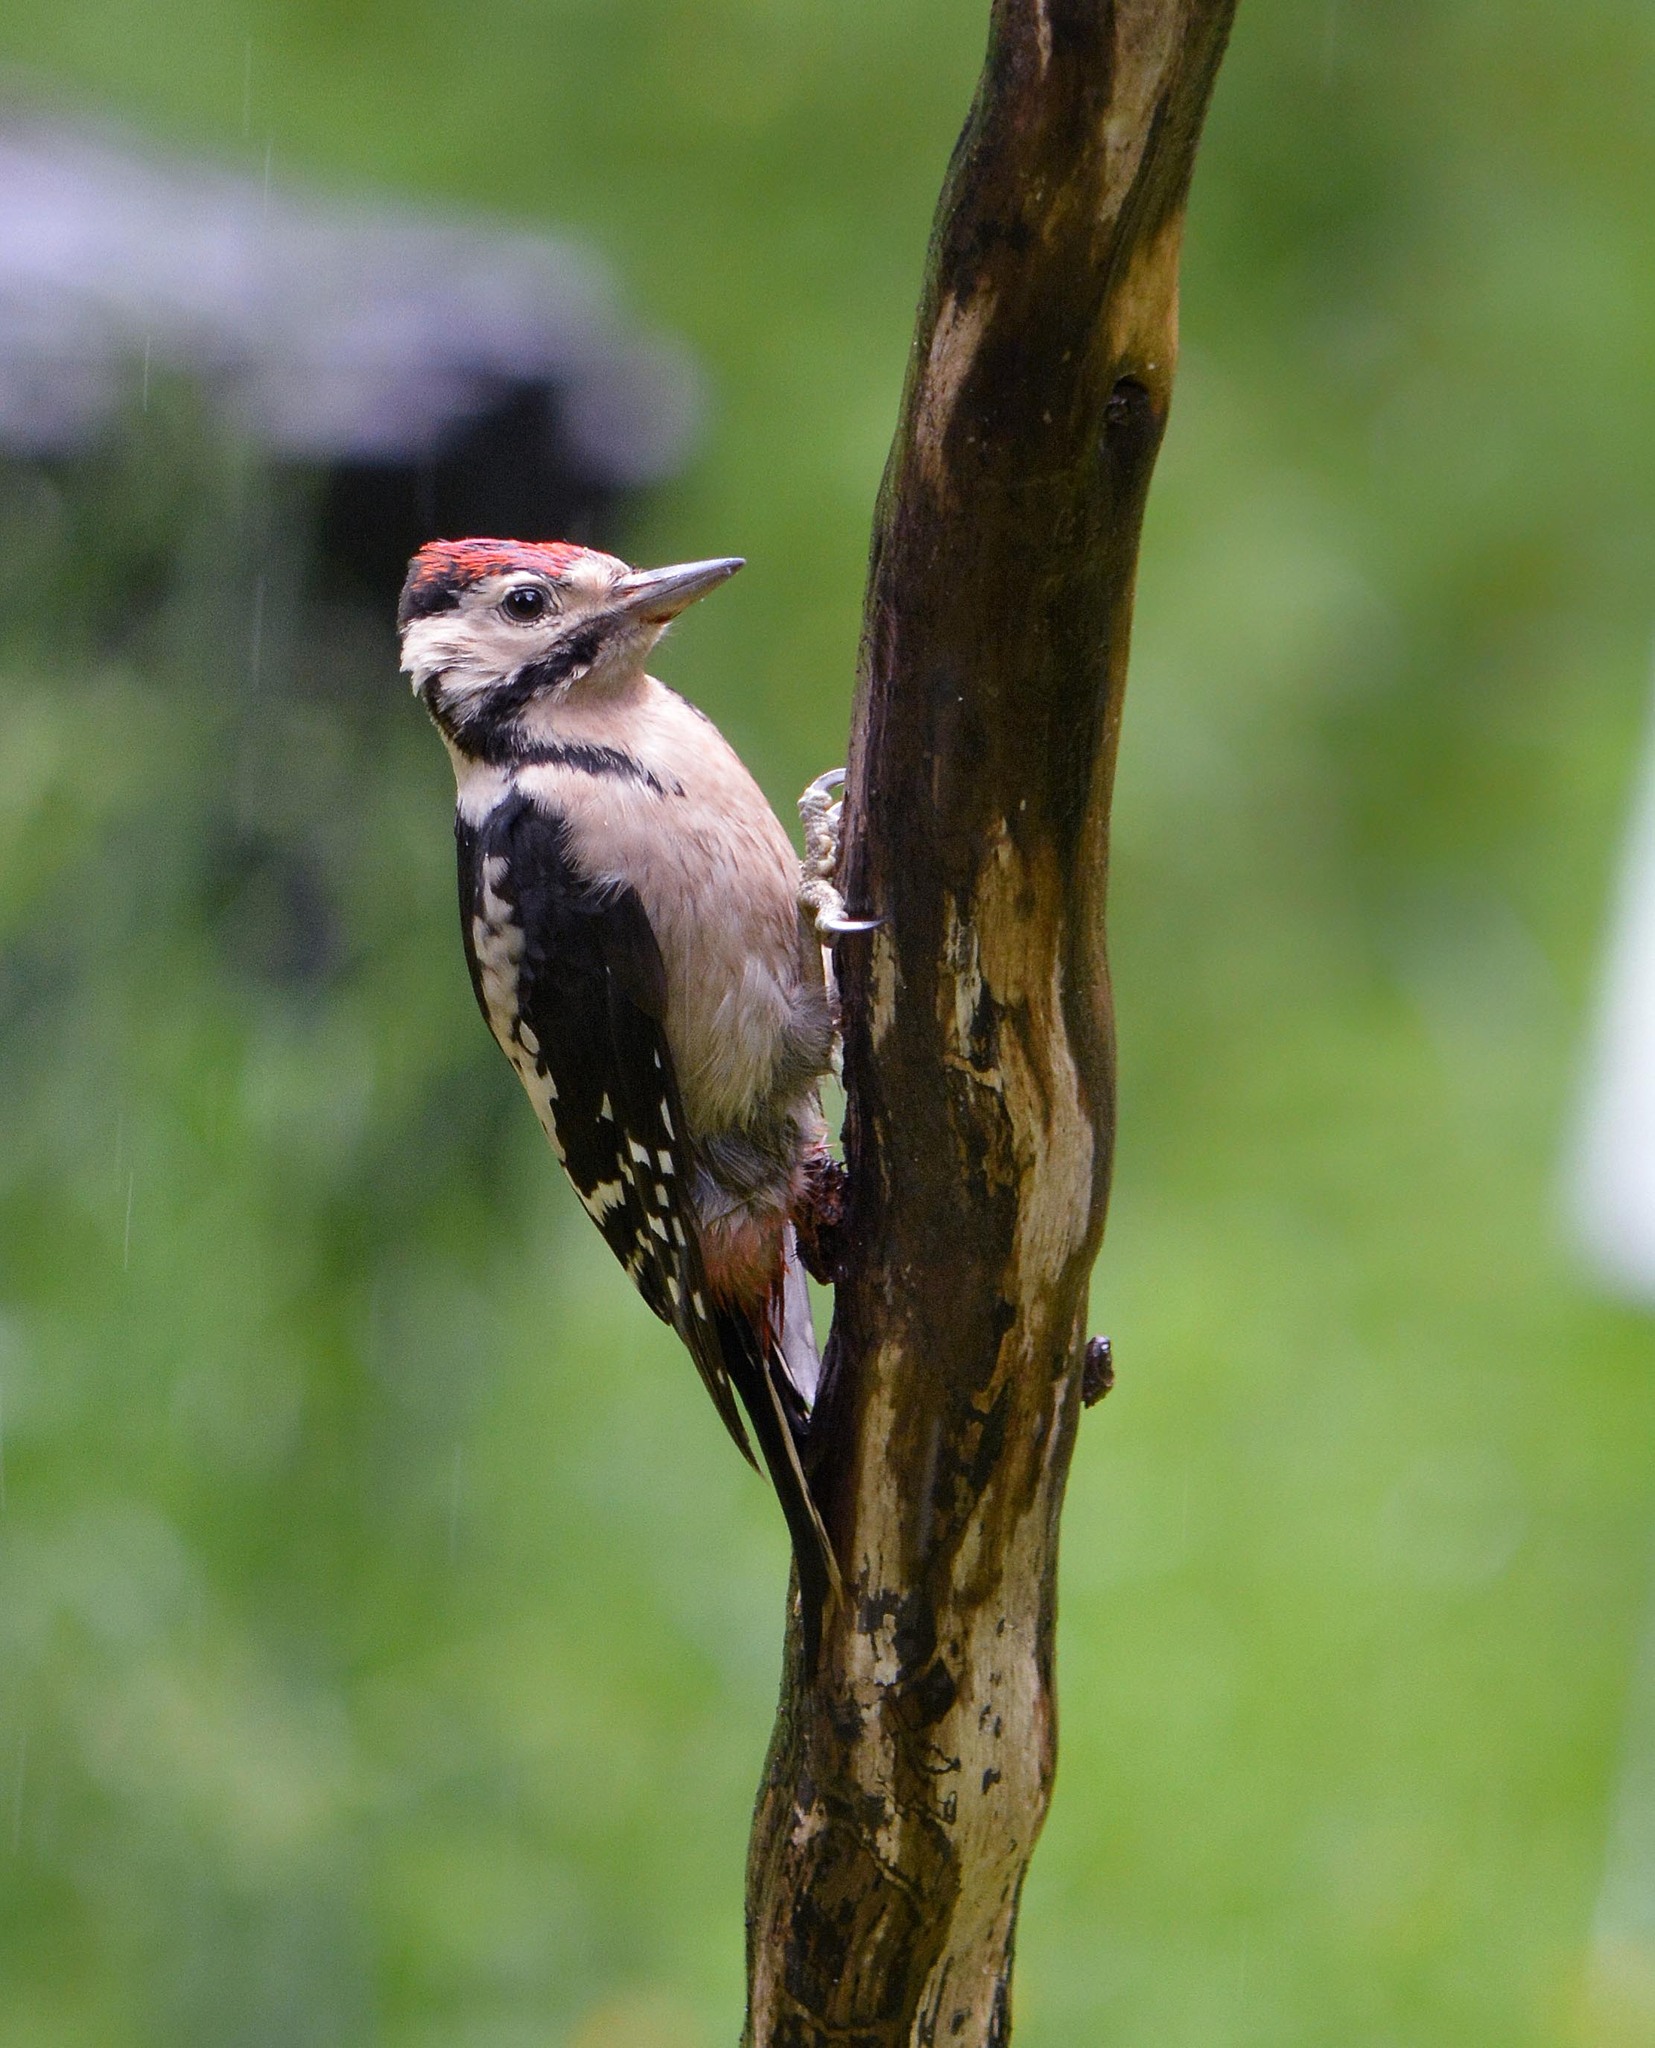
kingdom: Animalia
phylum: Chordata
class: Aves
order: Piciformes
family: Picidae
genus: Dendrocopos
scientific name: Dendrocopos major
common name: Great spotted woodpecker
